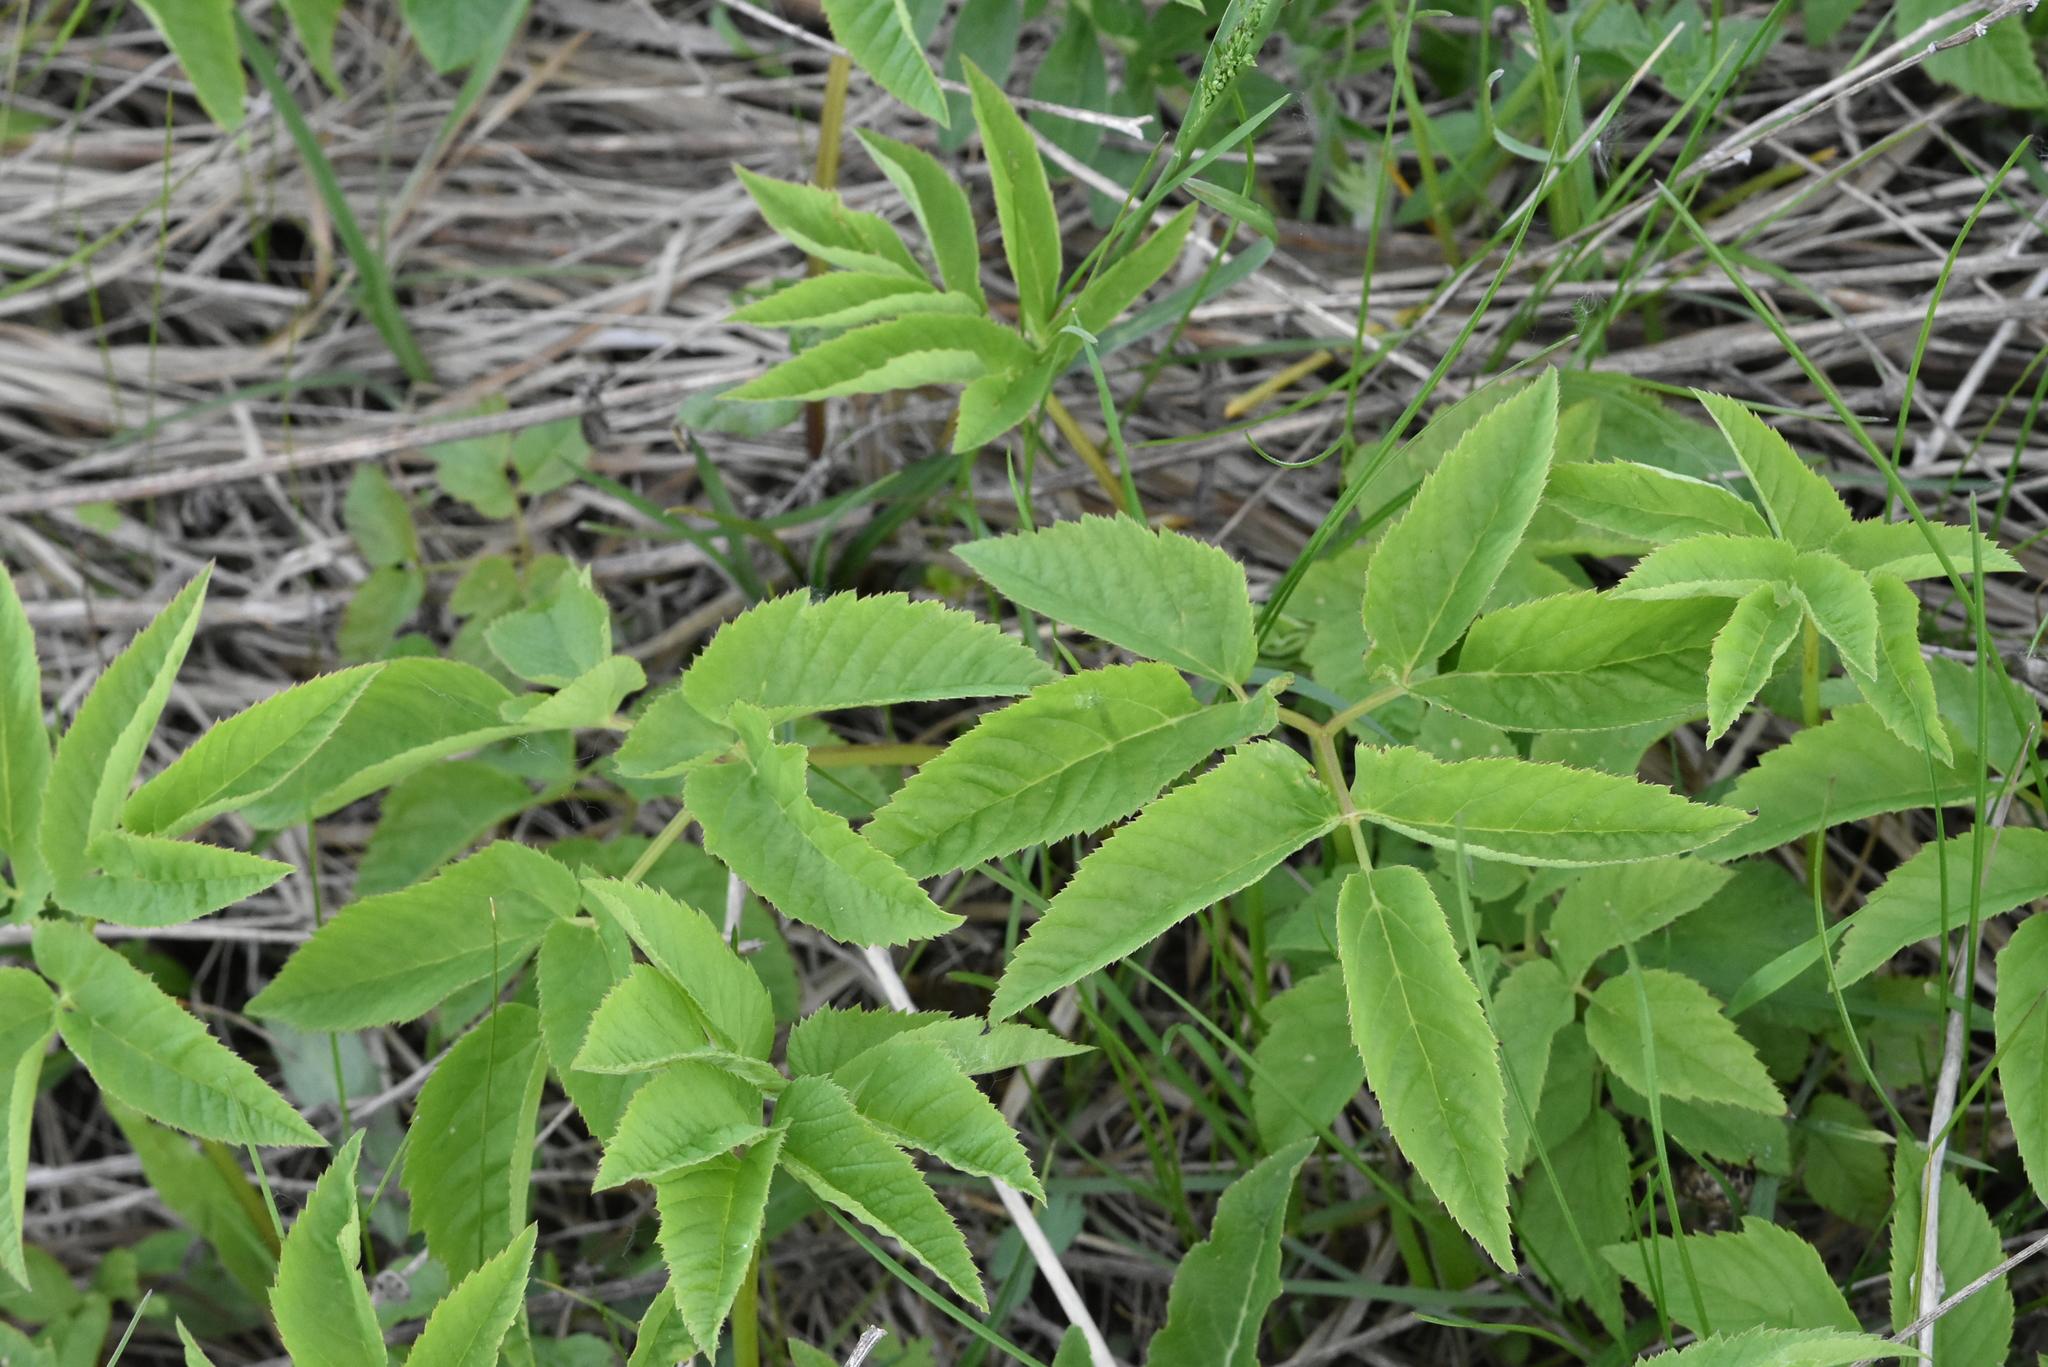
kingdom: Plantae
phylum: Tracheophyta
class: Magnoliopsida
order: Apiales
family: Apiaceae
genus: Aegopodium
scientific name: Aegopodium podagraria
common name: Ground-elder
